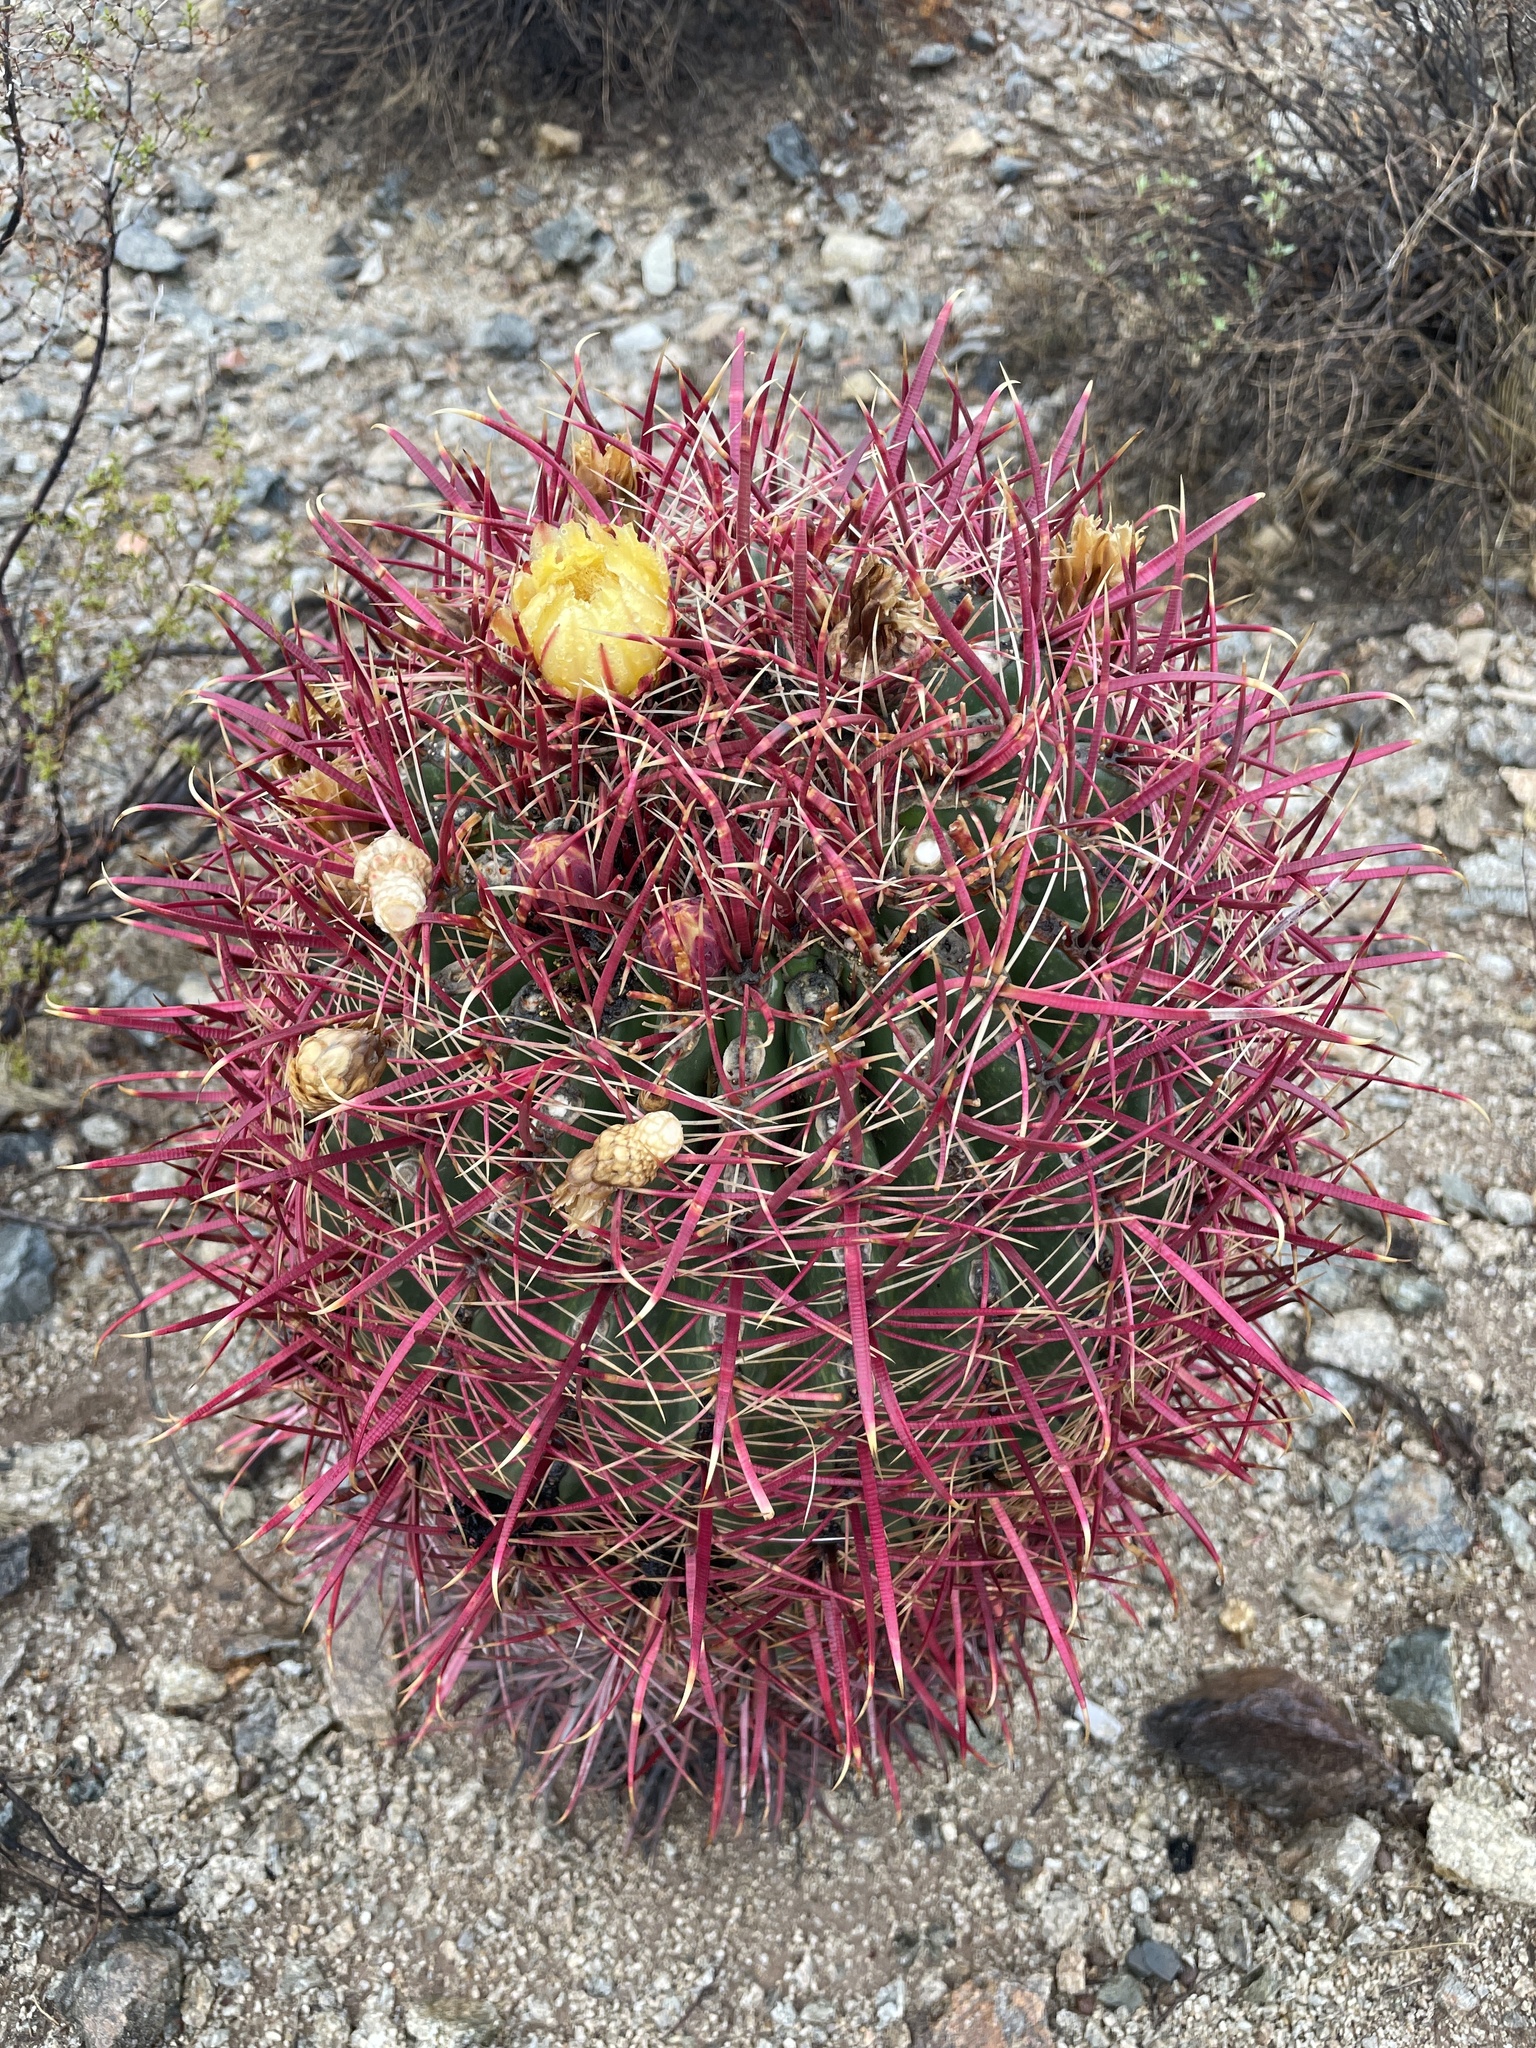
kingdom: Plantae
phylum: Tracheophyta
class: Magnoliopsida
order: Caryophyllales
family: Cactaceae
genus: Ferocactus
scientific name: Ferocactus cylindraceus
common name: California barrel cactus
